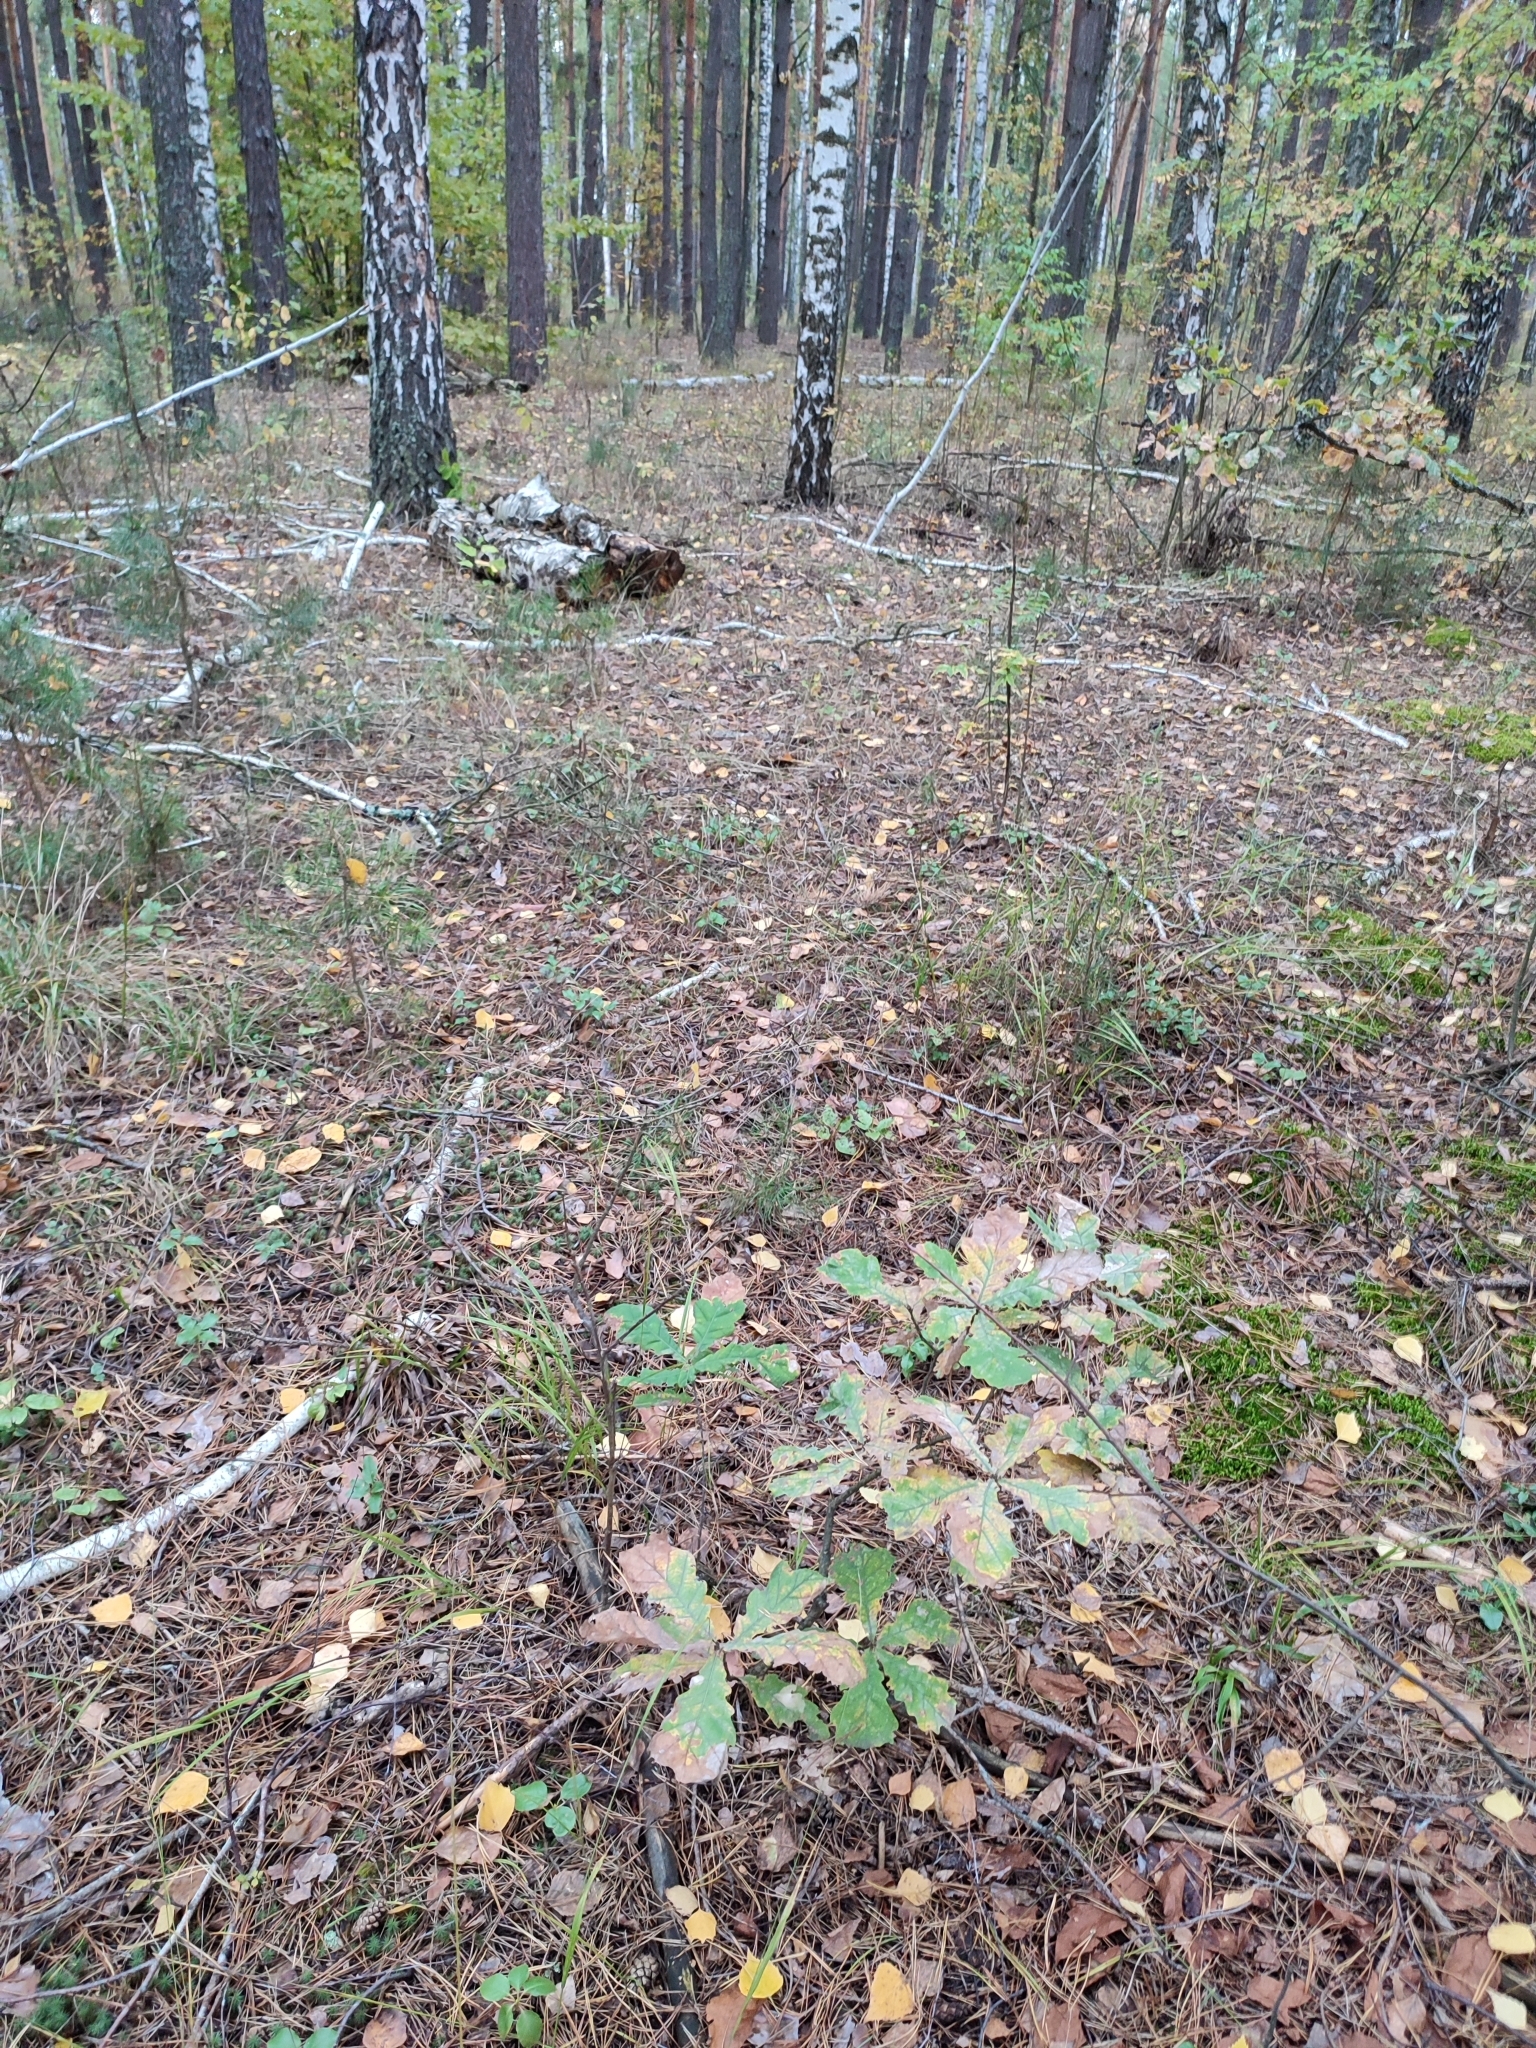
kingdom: Plantae
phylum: Tracheophyta
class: Magnoliopsida
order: Fagales
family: Fagaceae
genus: Quercus
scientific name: Quercus robur
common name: Pedunculate oak
